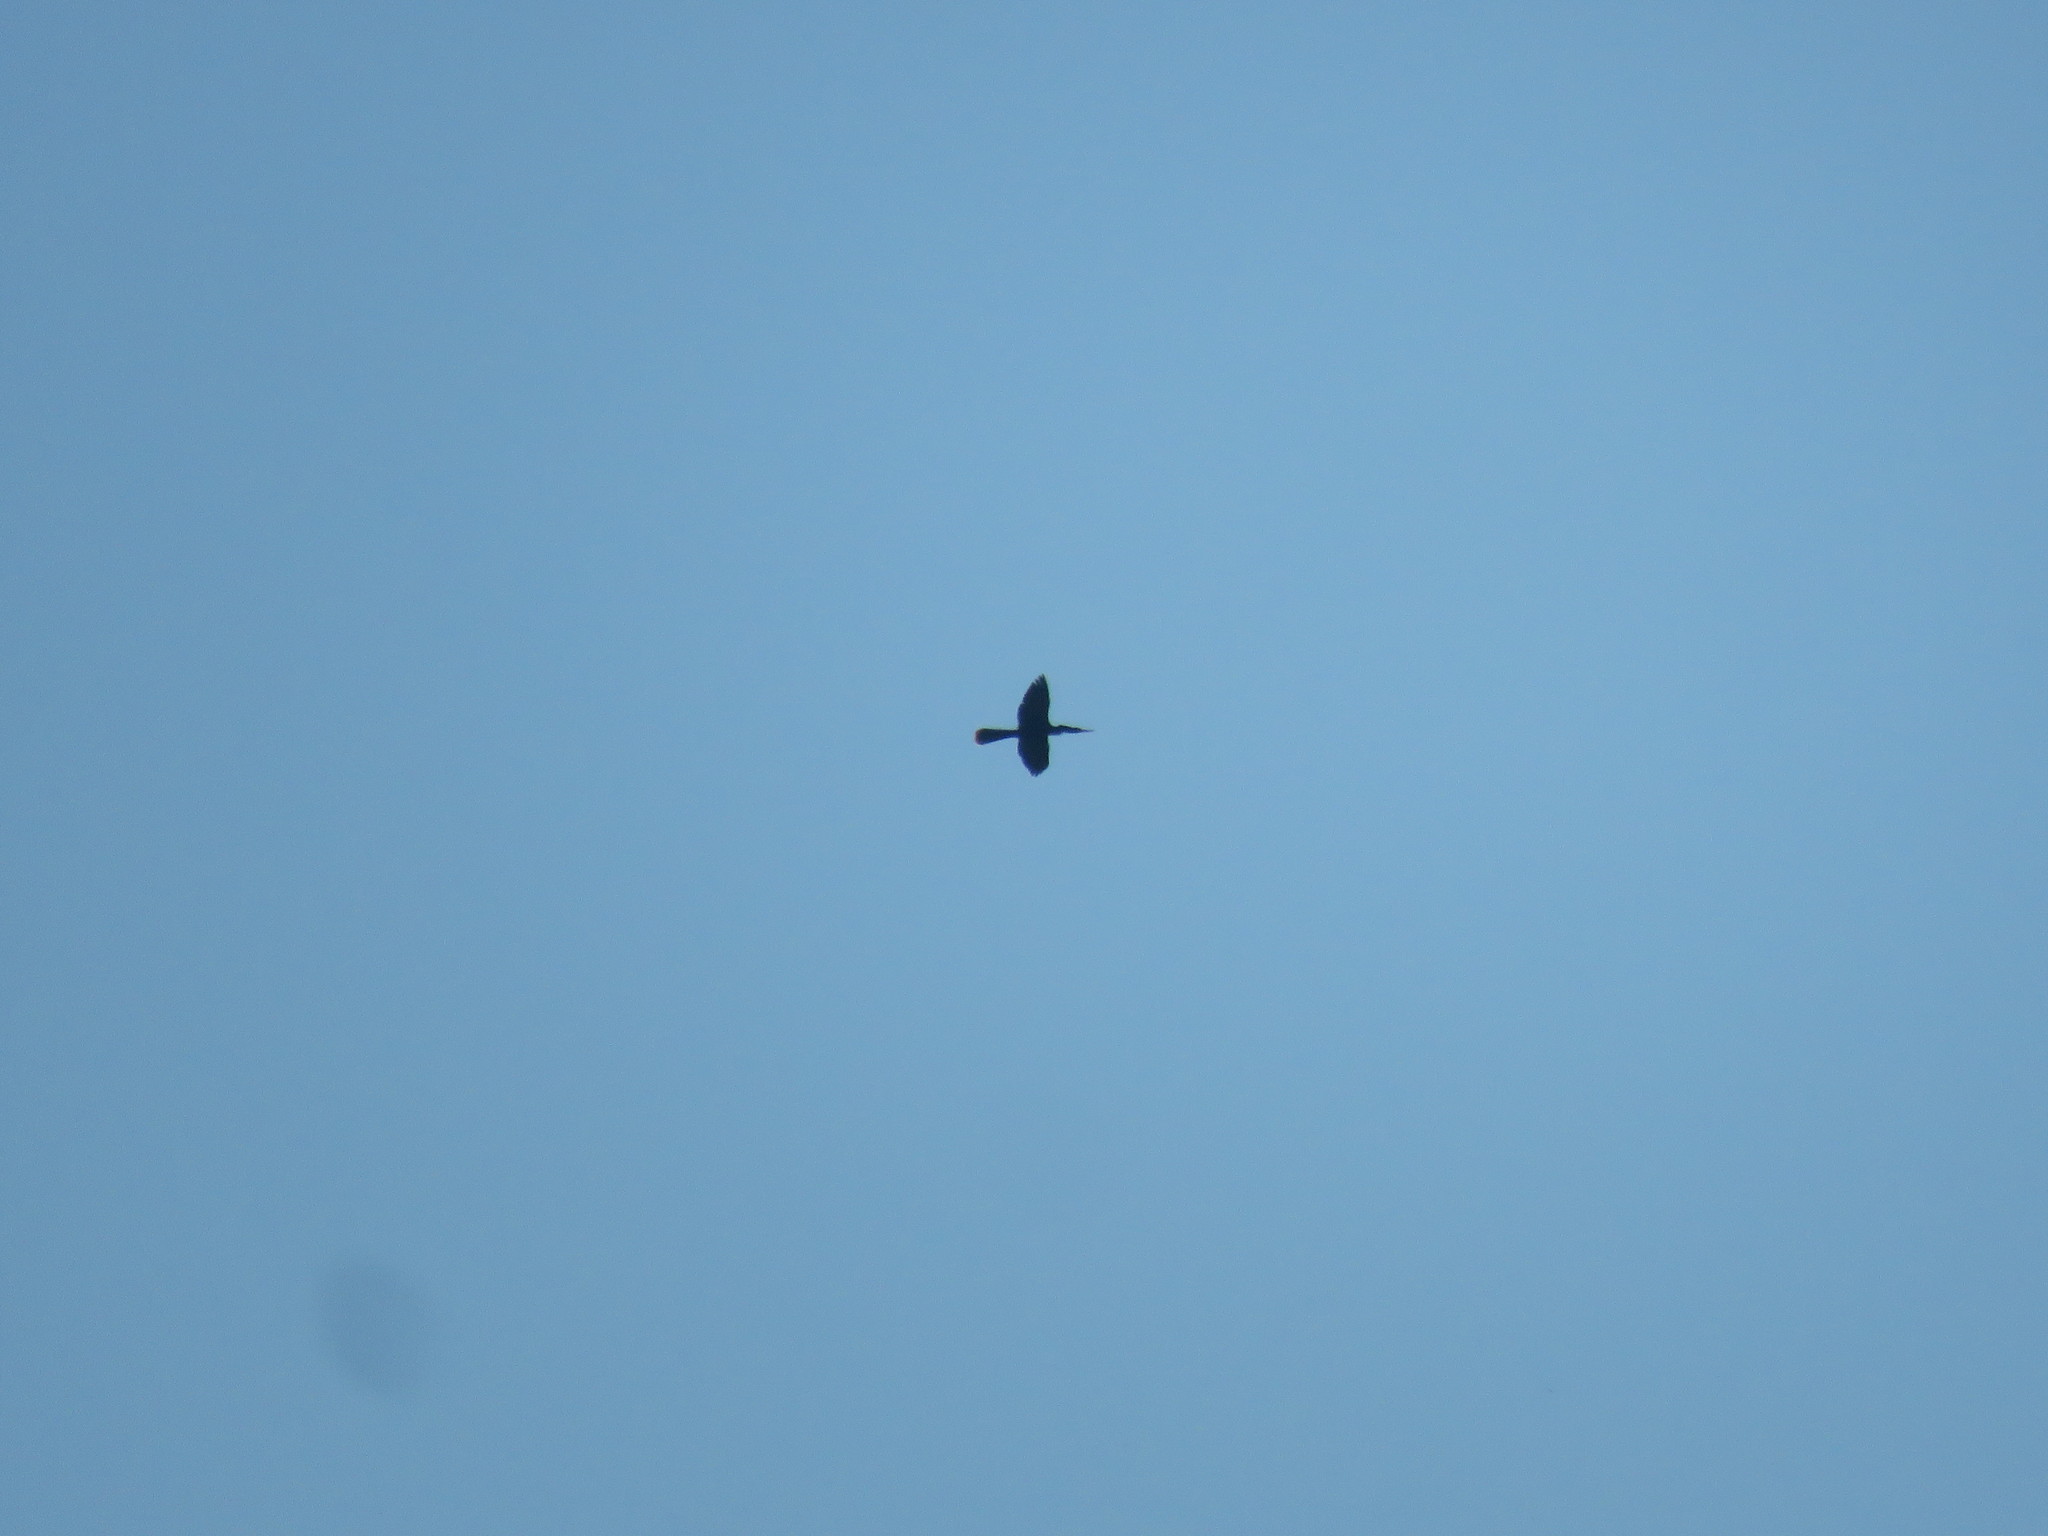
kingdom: Animalia
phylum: Chordata
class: Aves
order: Suliformes
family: Anhingidae
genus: Anhinga
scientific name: Anhinga anhinga
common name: Anhinga
